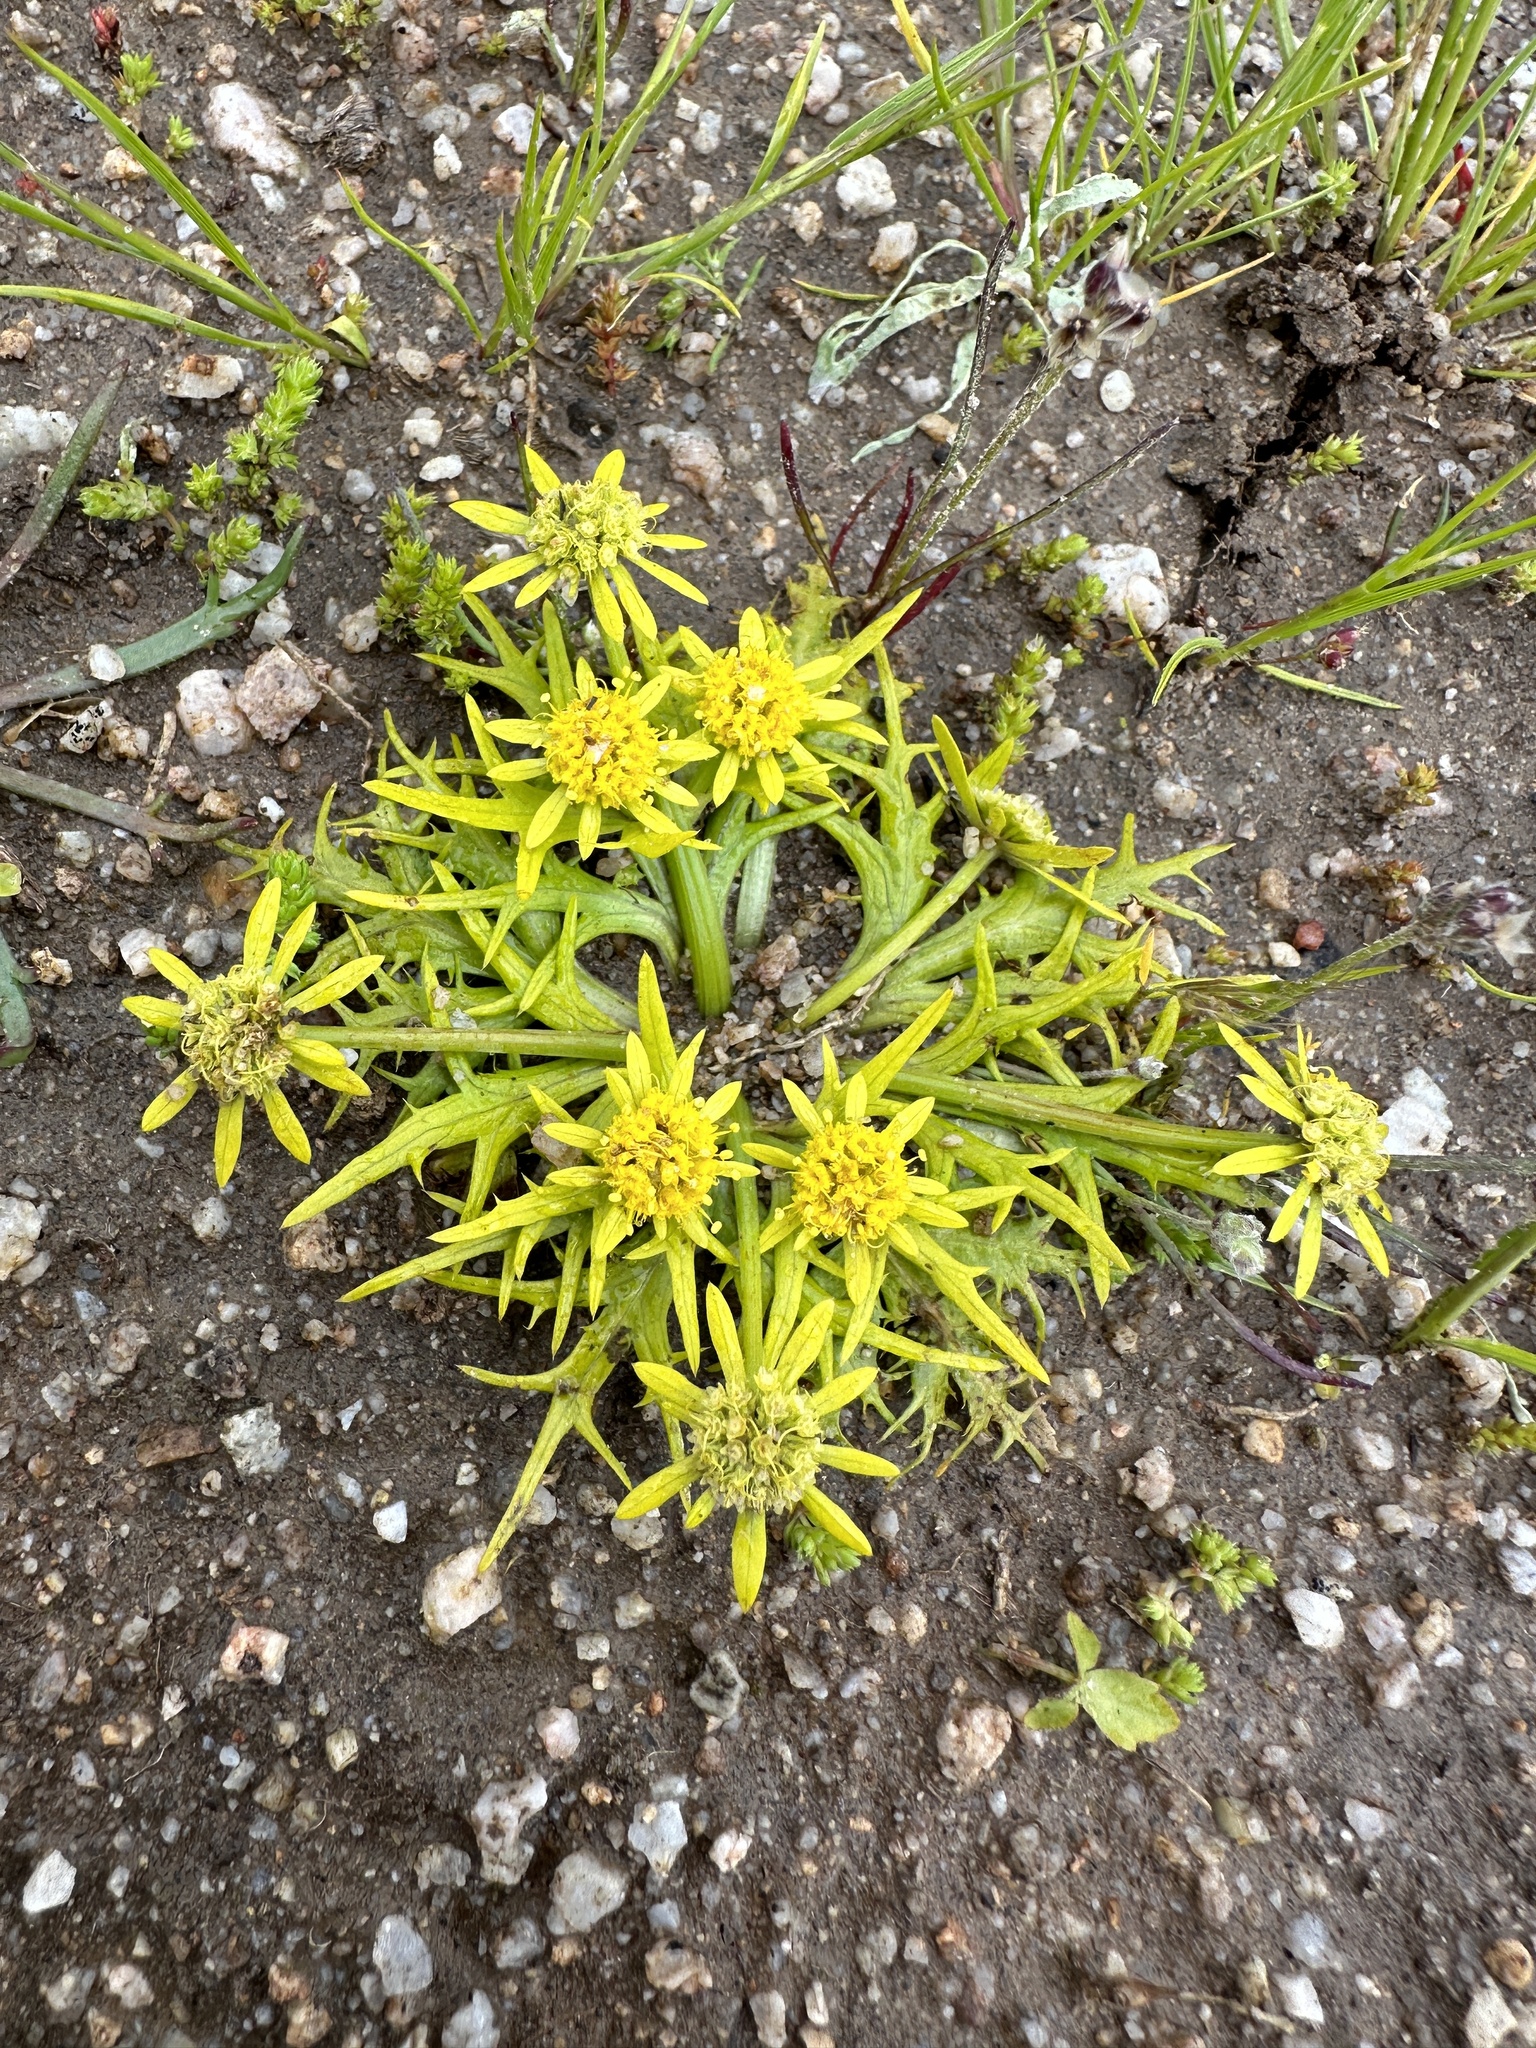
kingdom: Plantae
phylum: Tracheophyta
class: Magnoliopsida
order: Apiales
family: Apiaceae
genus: Sanicula
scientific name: Sanicula arctopoides
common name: Footsteps-of-spring
